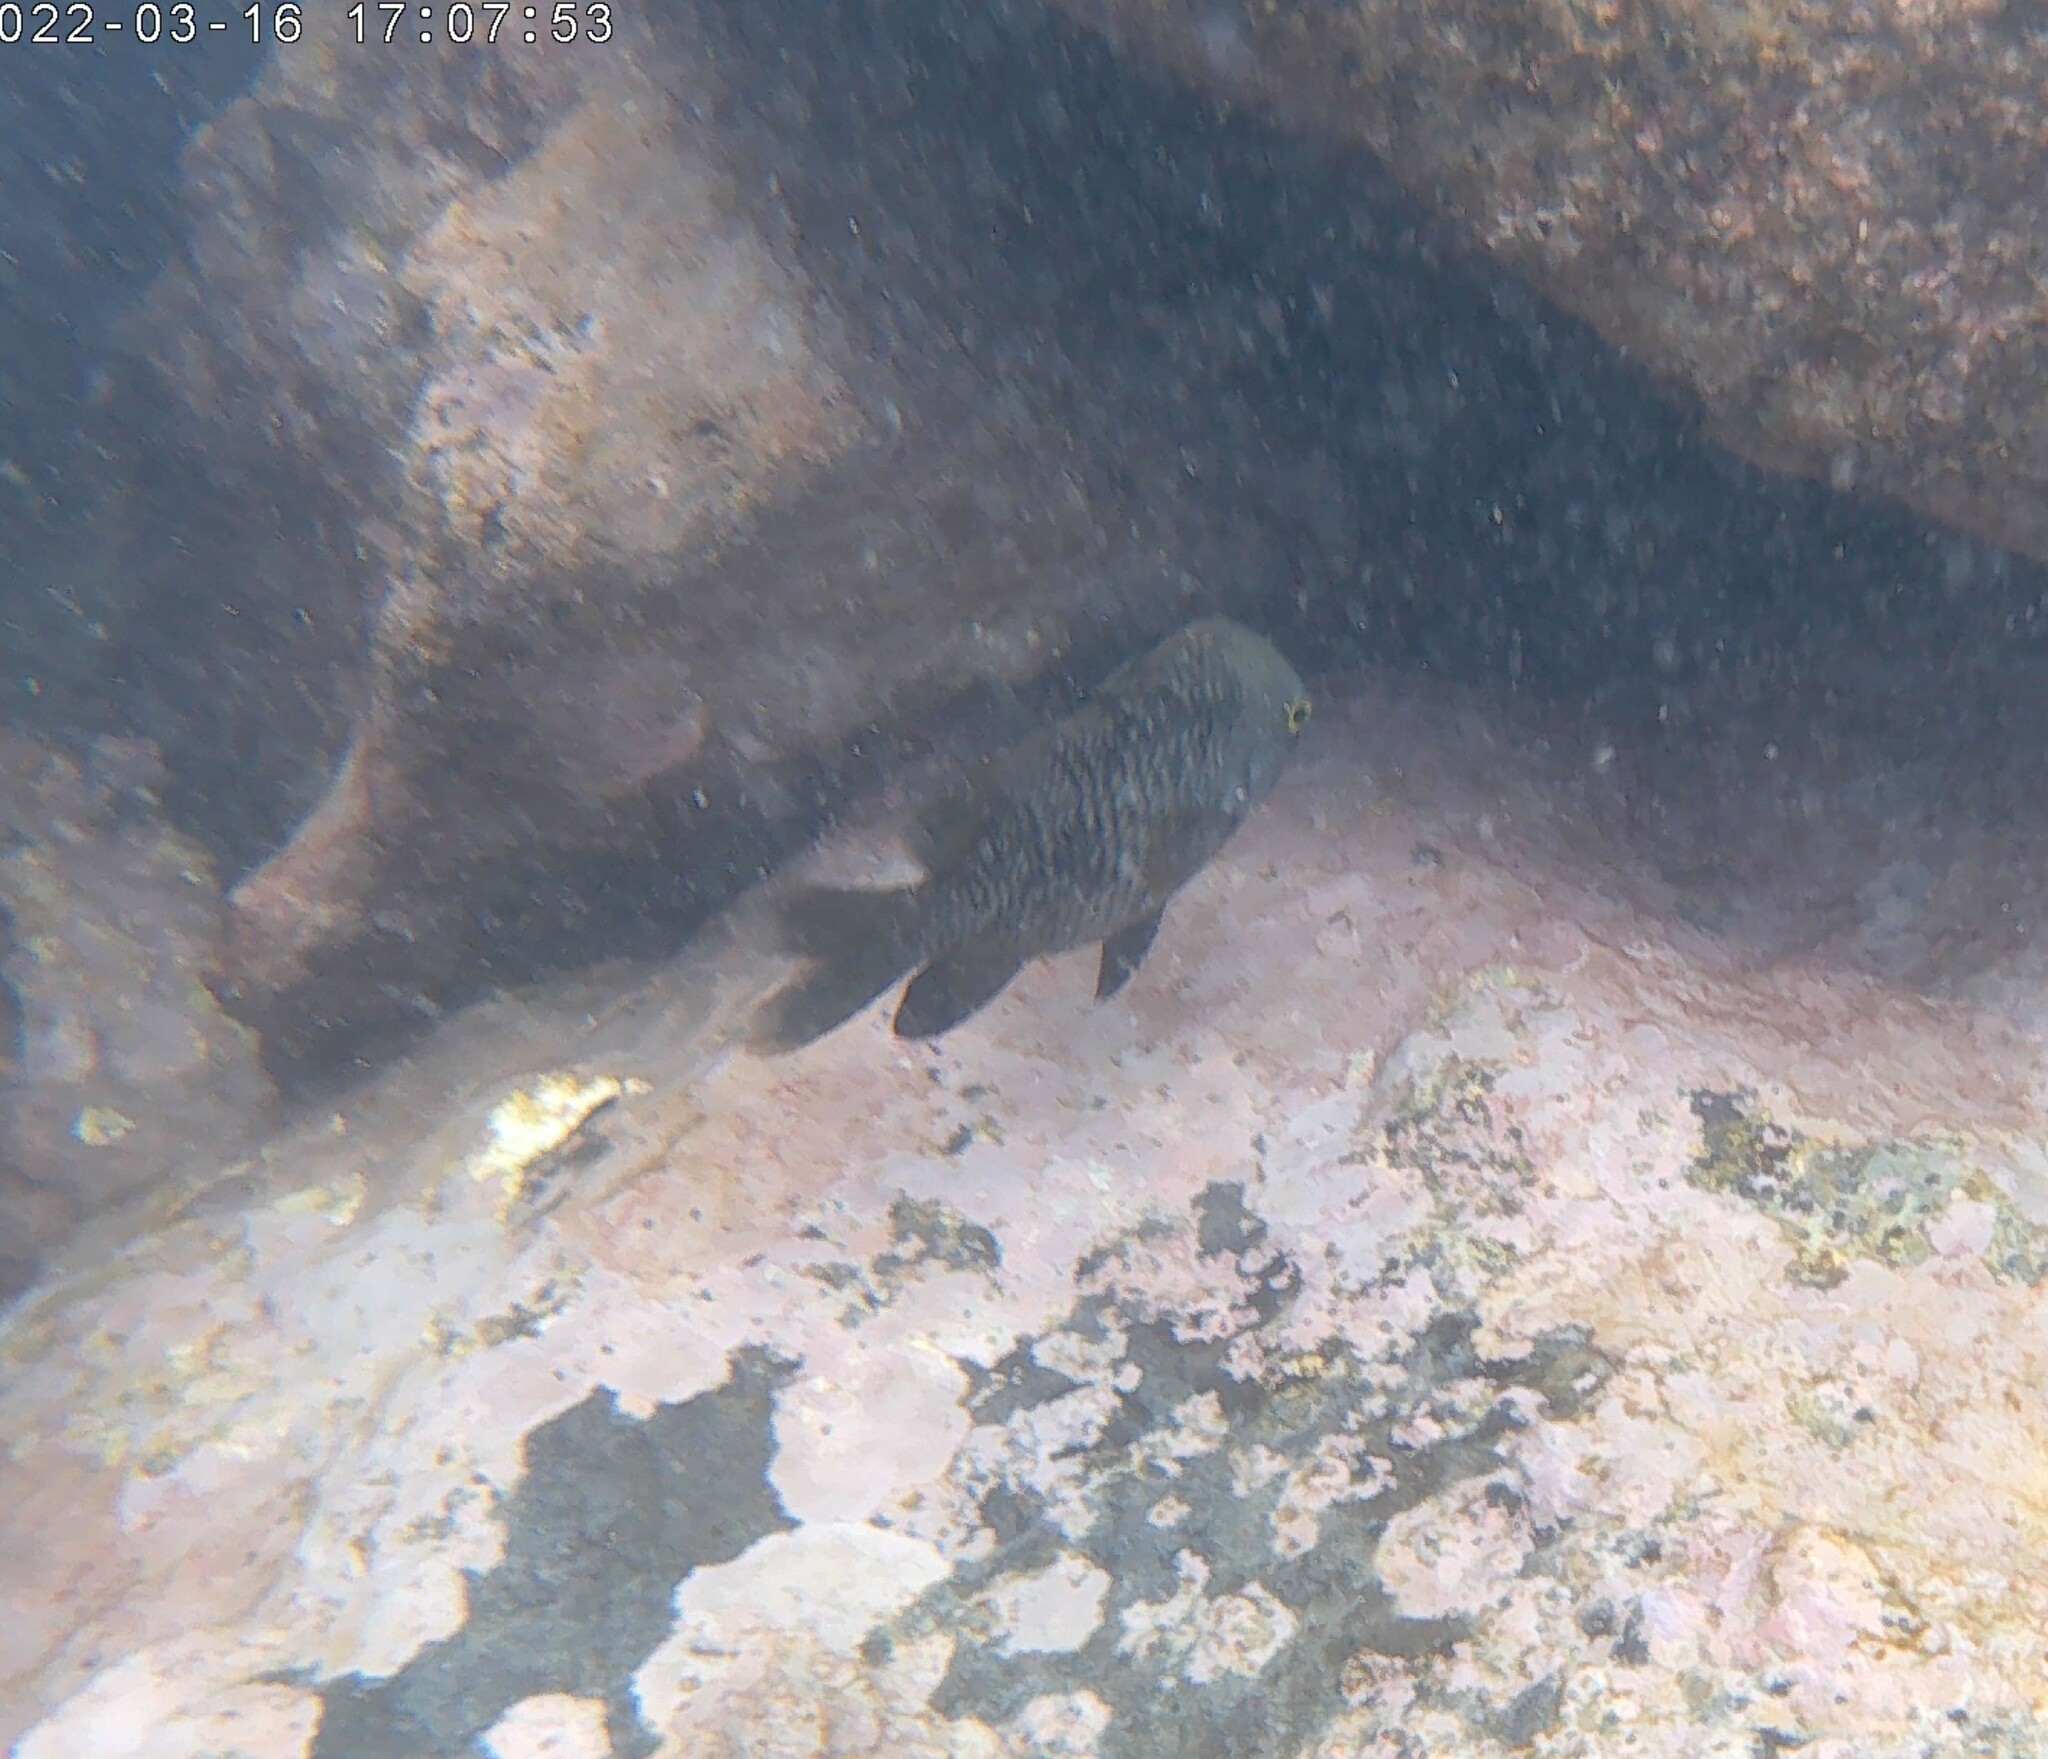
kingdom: Animalia
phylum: Chordata
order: Perciformes
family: Pomacentridae
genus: Stegastes
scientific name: Stegastes fasciolatus
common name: Pacific gregory
